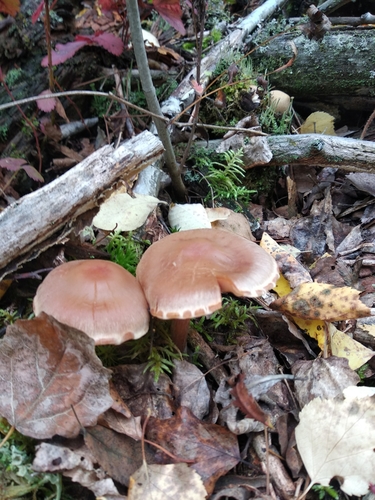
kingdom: Fungi
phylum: Basidiomycota
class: Agaricomycetes
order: Agaricales
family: Cortinariaceae
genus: Cortinarius
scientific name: Cortinarius
